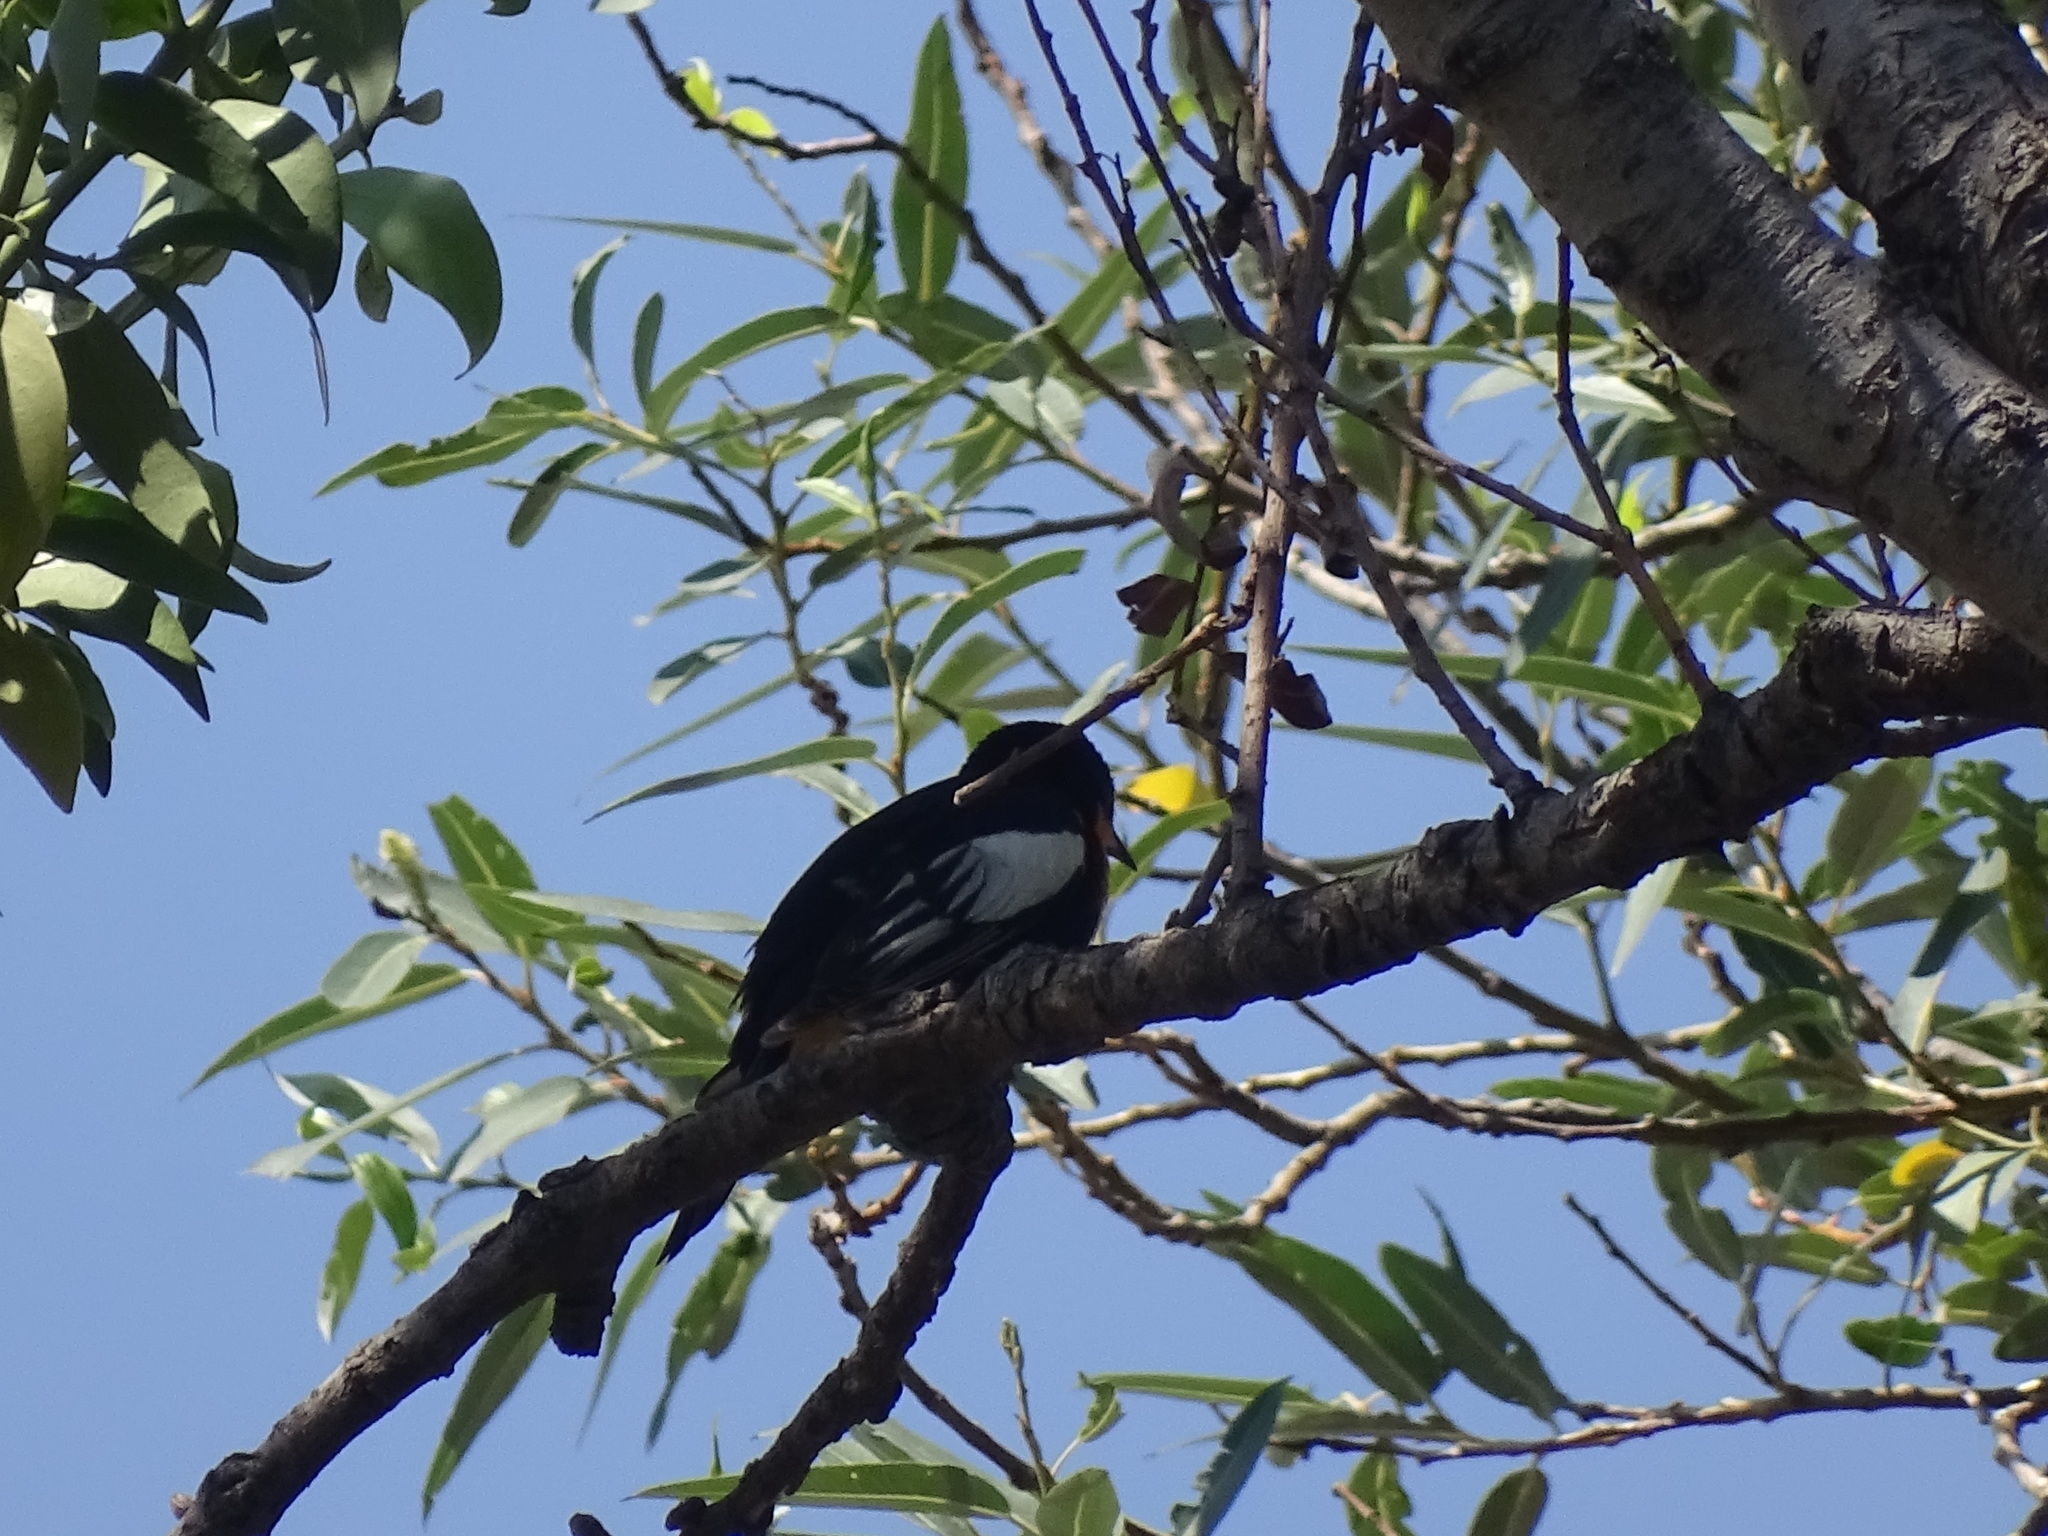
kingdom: Animalia
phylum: Chordata
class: Aves
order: Passeriformes
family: Icteridae
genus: Icterus
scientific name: Icterus abeillei
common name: Black-backed oriole
